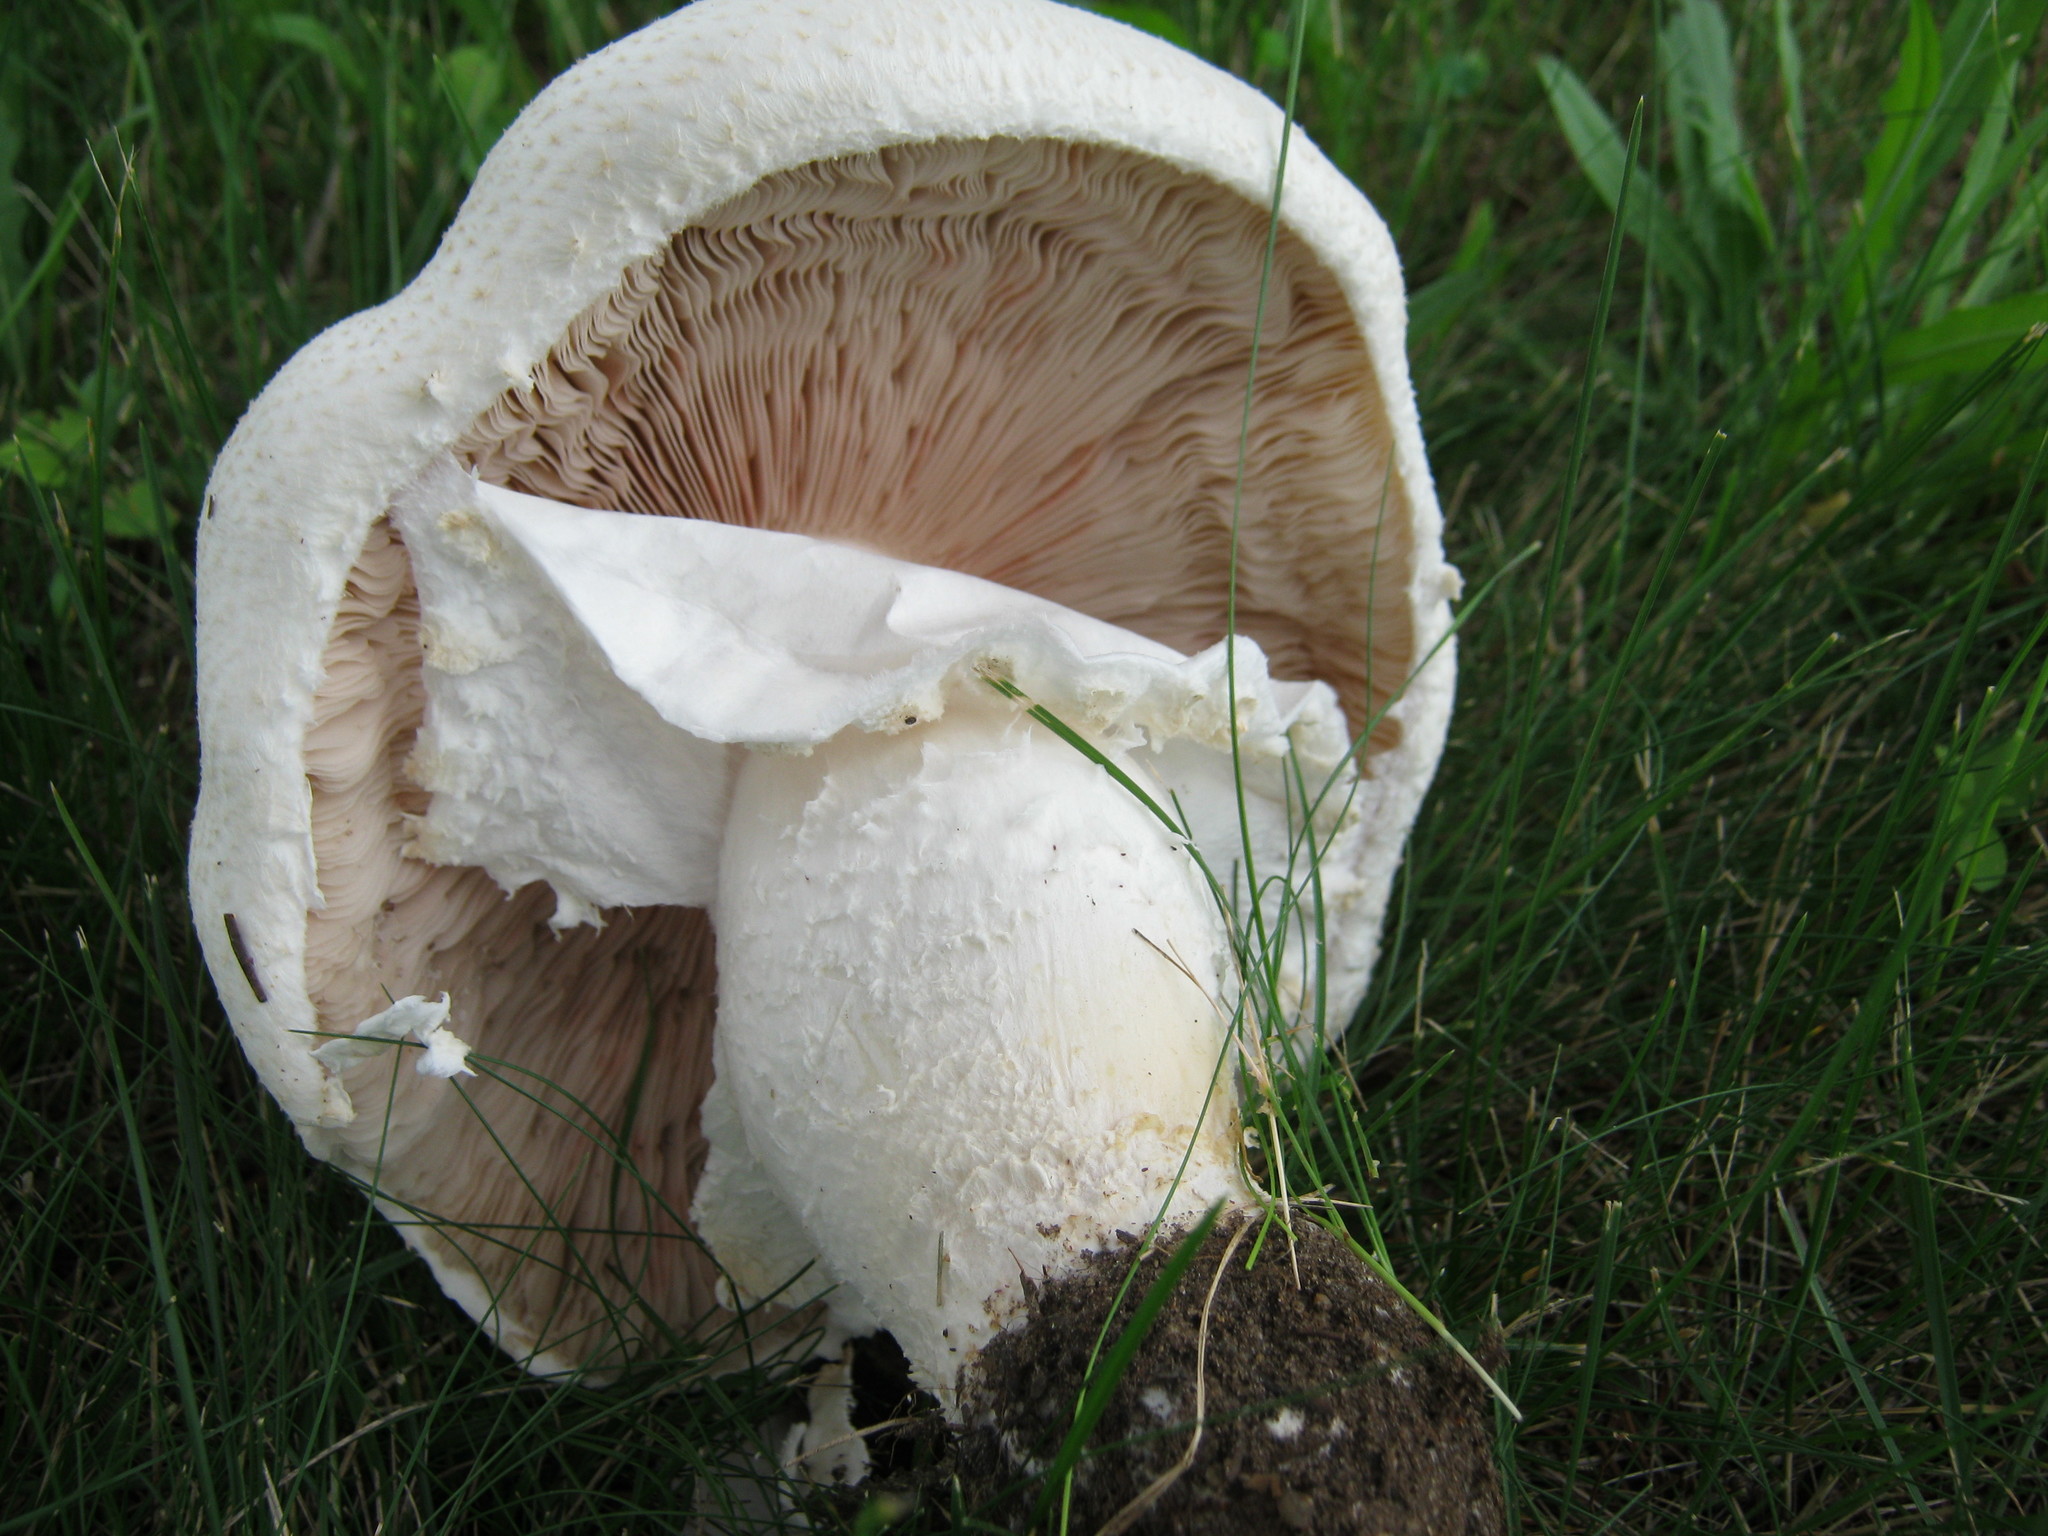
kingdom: Fungi
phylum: Basidiomycota
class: Agaricomycetes
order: Agaricales
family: Agaricaceae
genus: Agaricus
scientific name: Agaricus arvensis
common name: Horse mushroom
